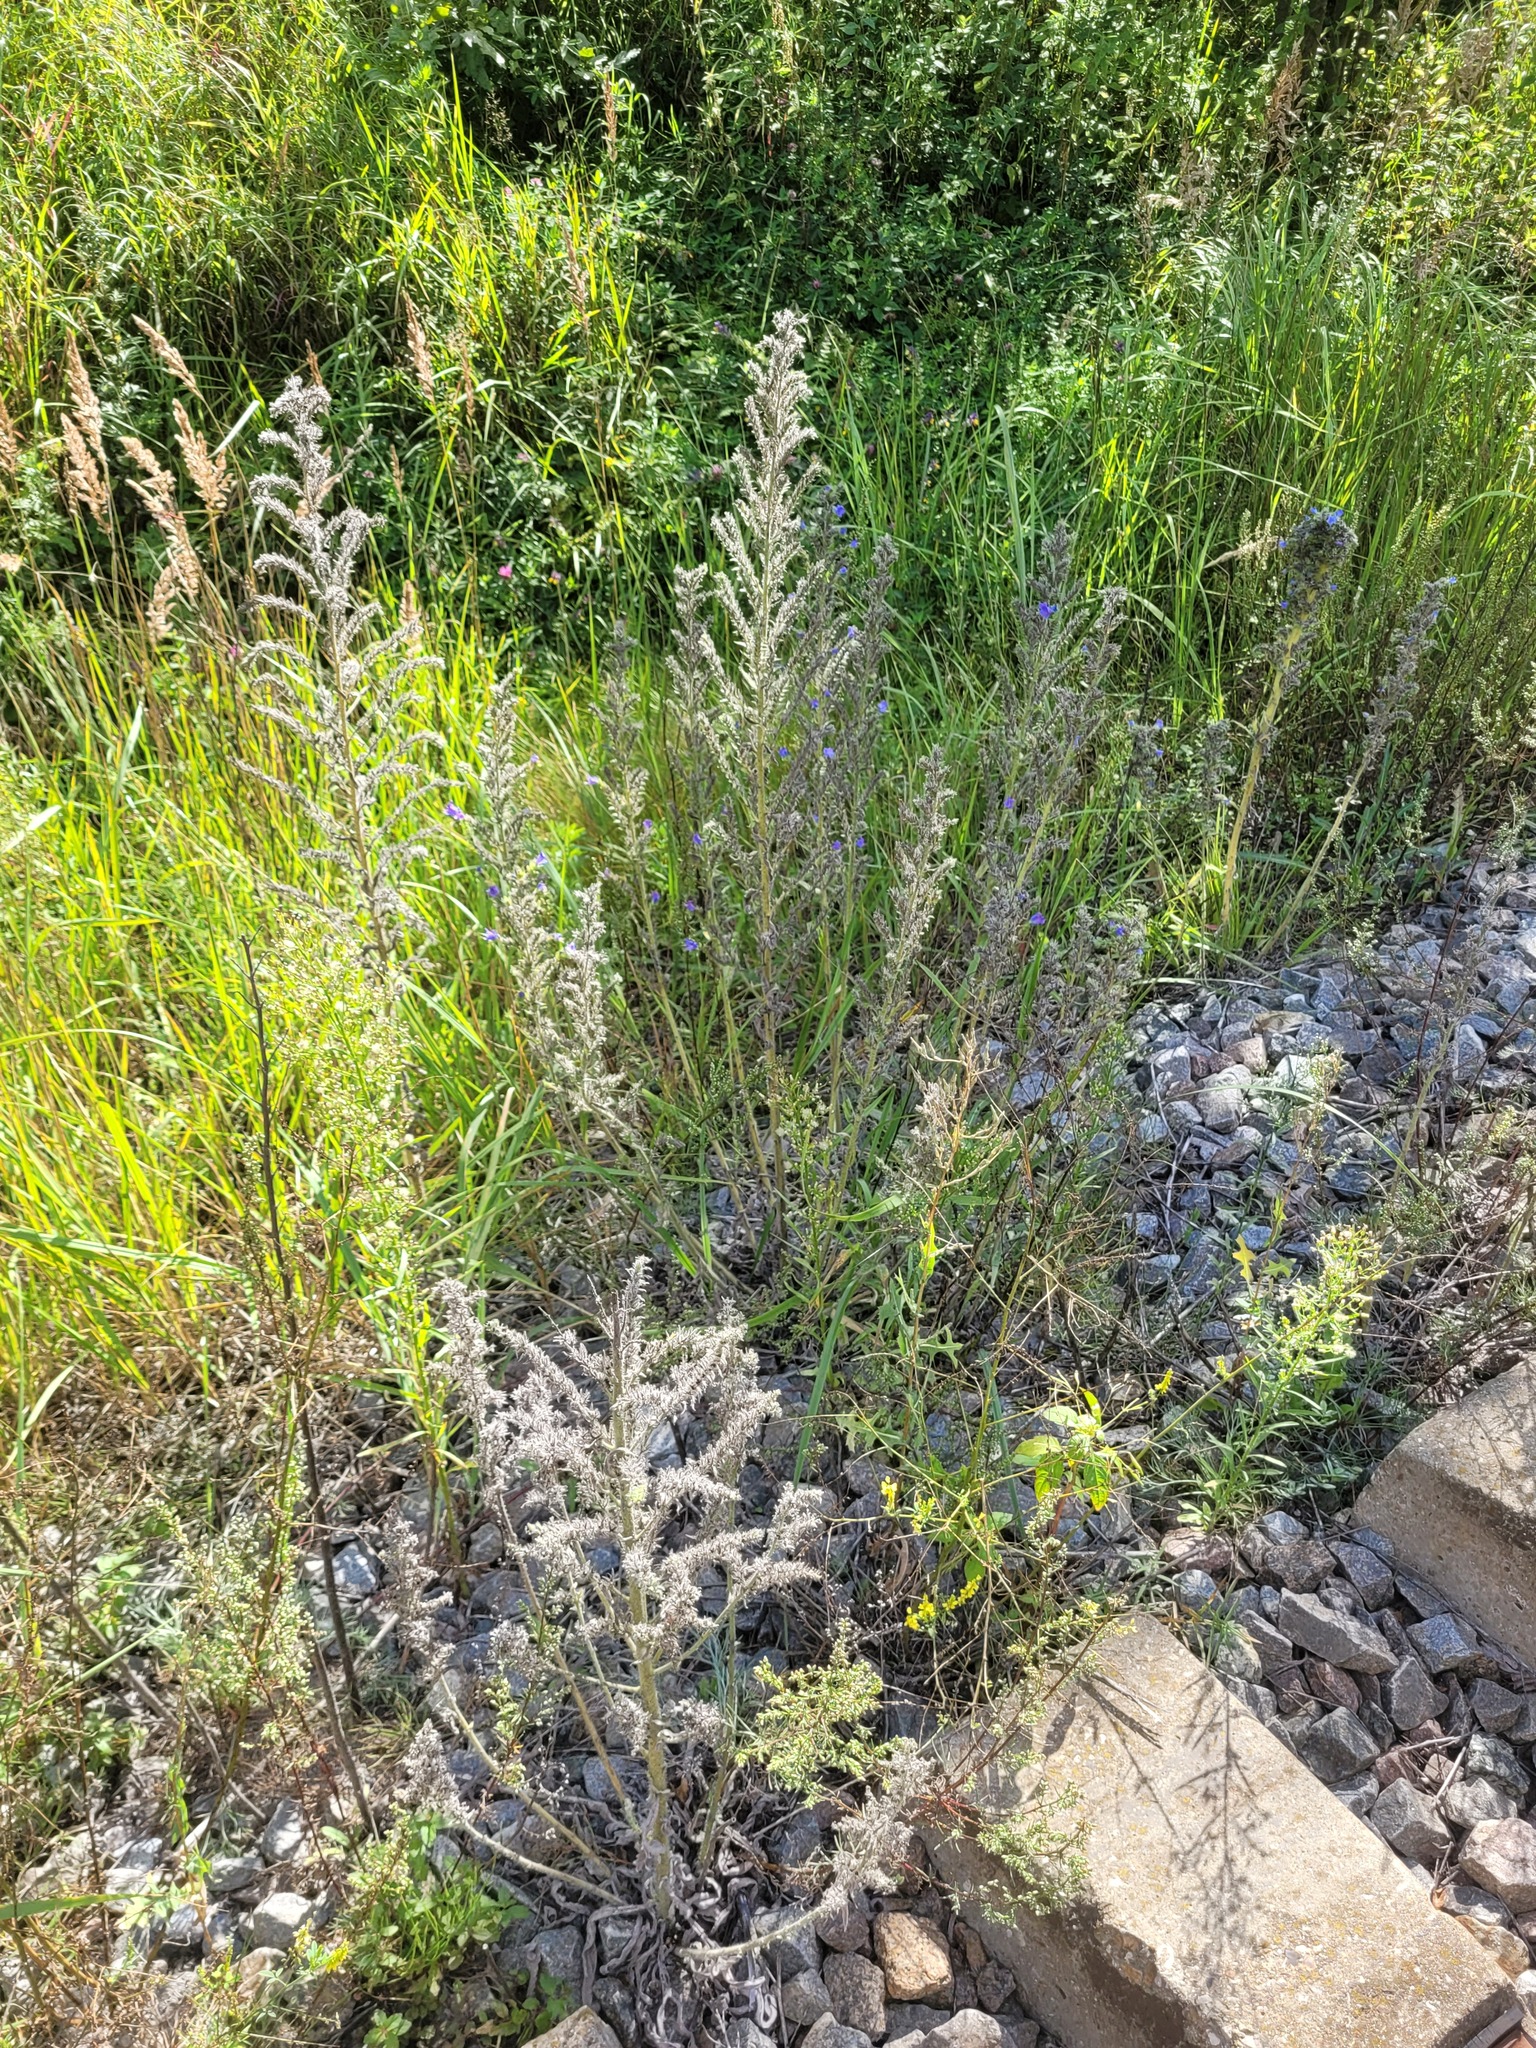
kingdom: Plantae
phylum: Tracheophyta
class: Magnoliopsida
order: Boraginales
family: Boraginaceae
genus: Echium
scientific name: Echium vulgare
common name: Common viper's bugloss
